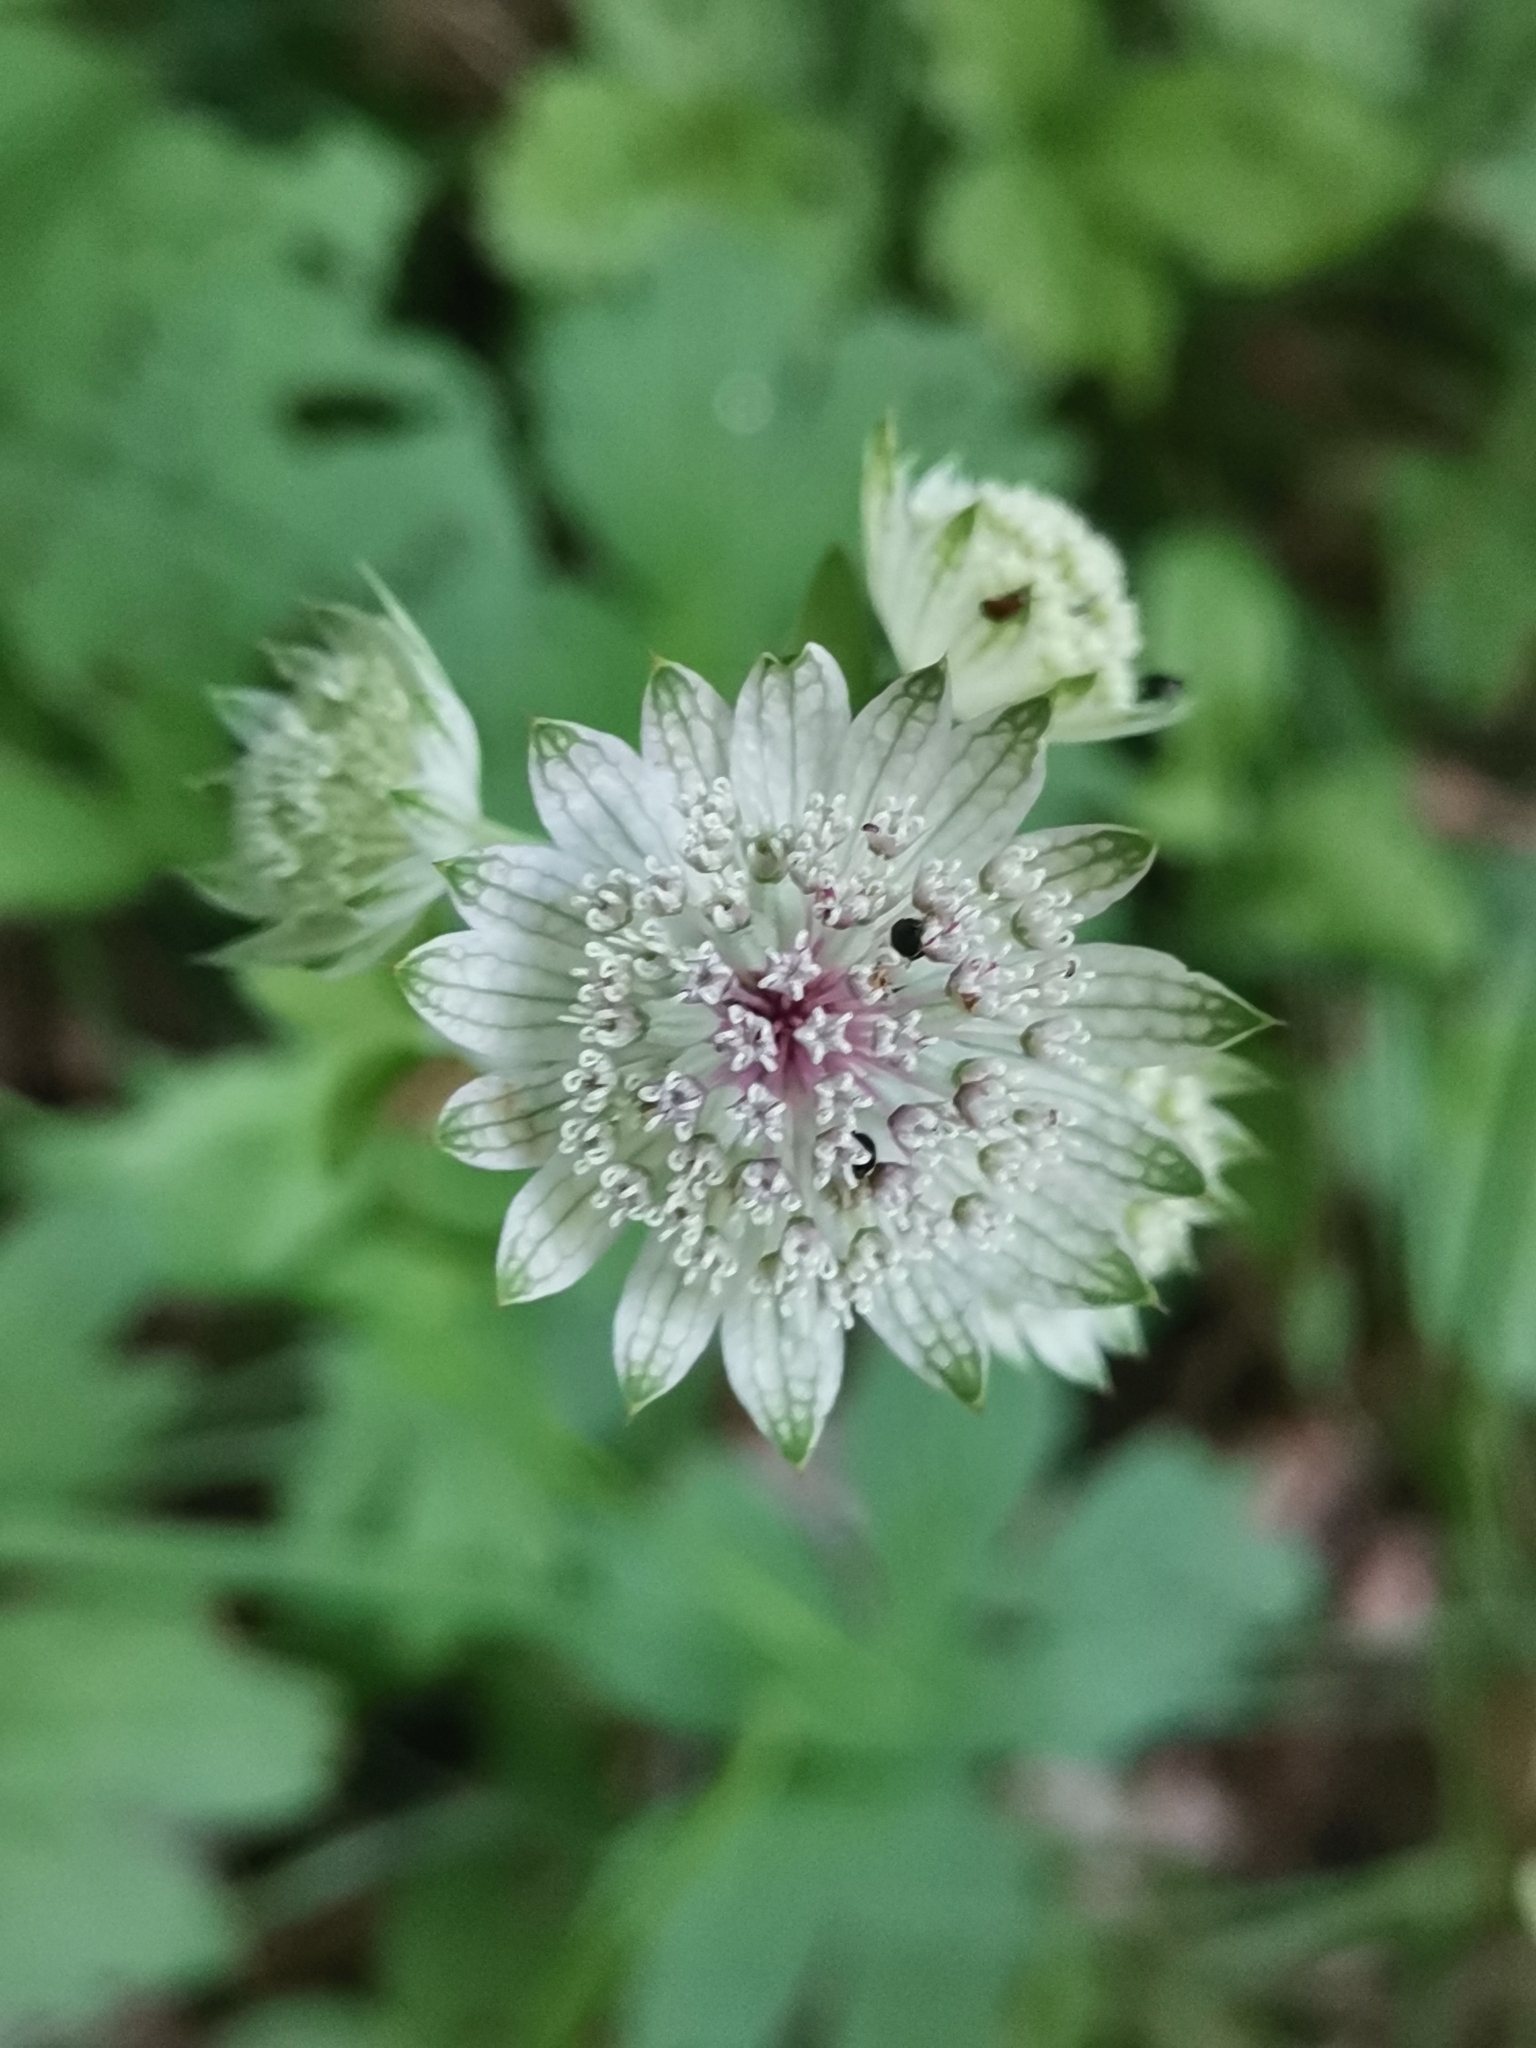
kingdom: Plantae
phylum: Tracheophyta
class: Magnoliopsida
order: Apiales
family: Apiaceae
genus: Astrantia
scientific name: Astrantia major
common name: Greater masterwort
